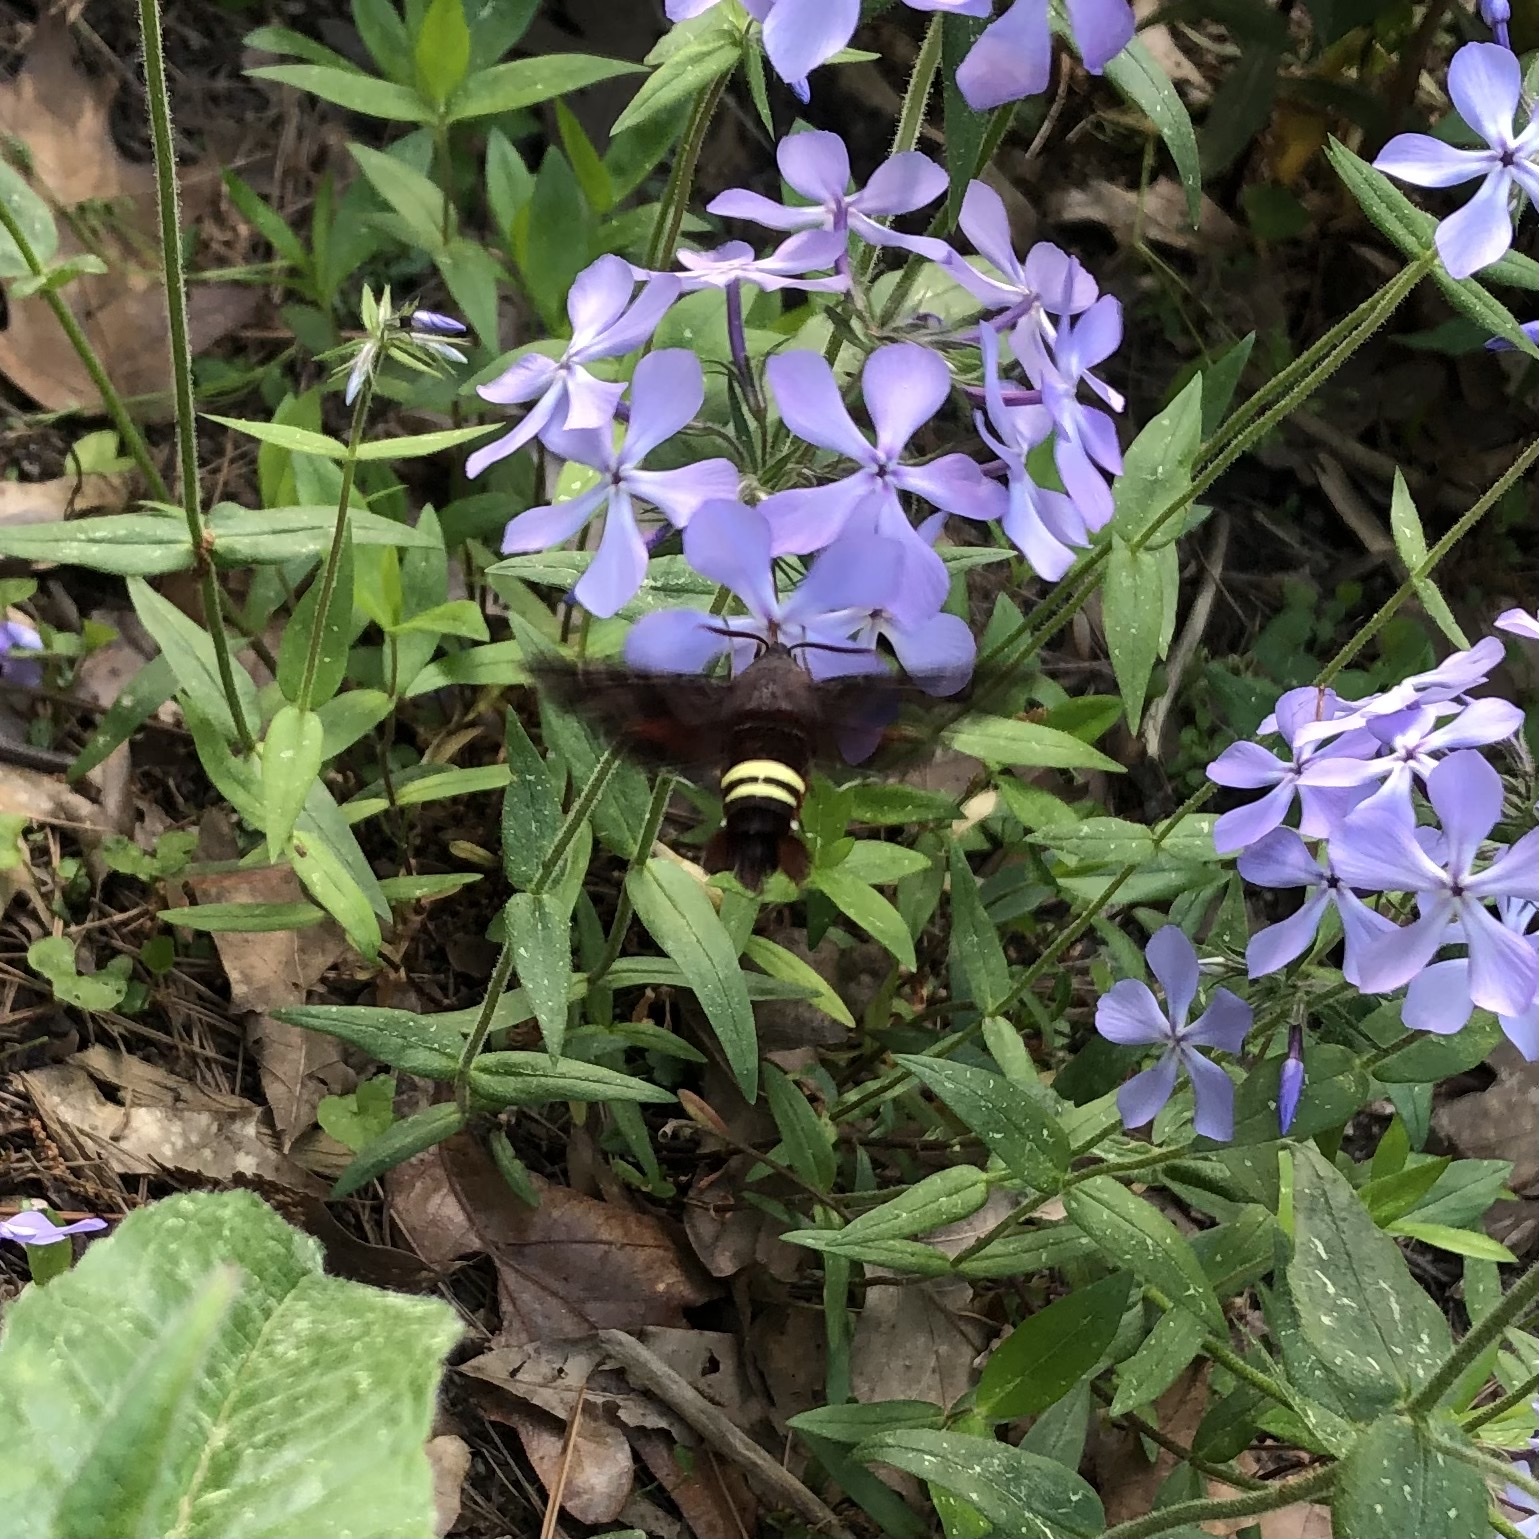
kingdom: Animalia
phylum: Arthropoda
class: Insecta
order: Lepidoptera
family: Sphingidae
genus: Amphion
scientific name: Amphion floridensis
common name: Nessus sphinx
